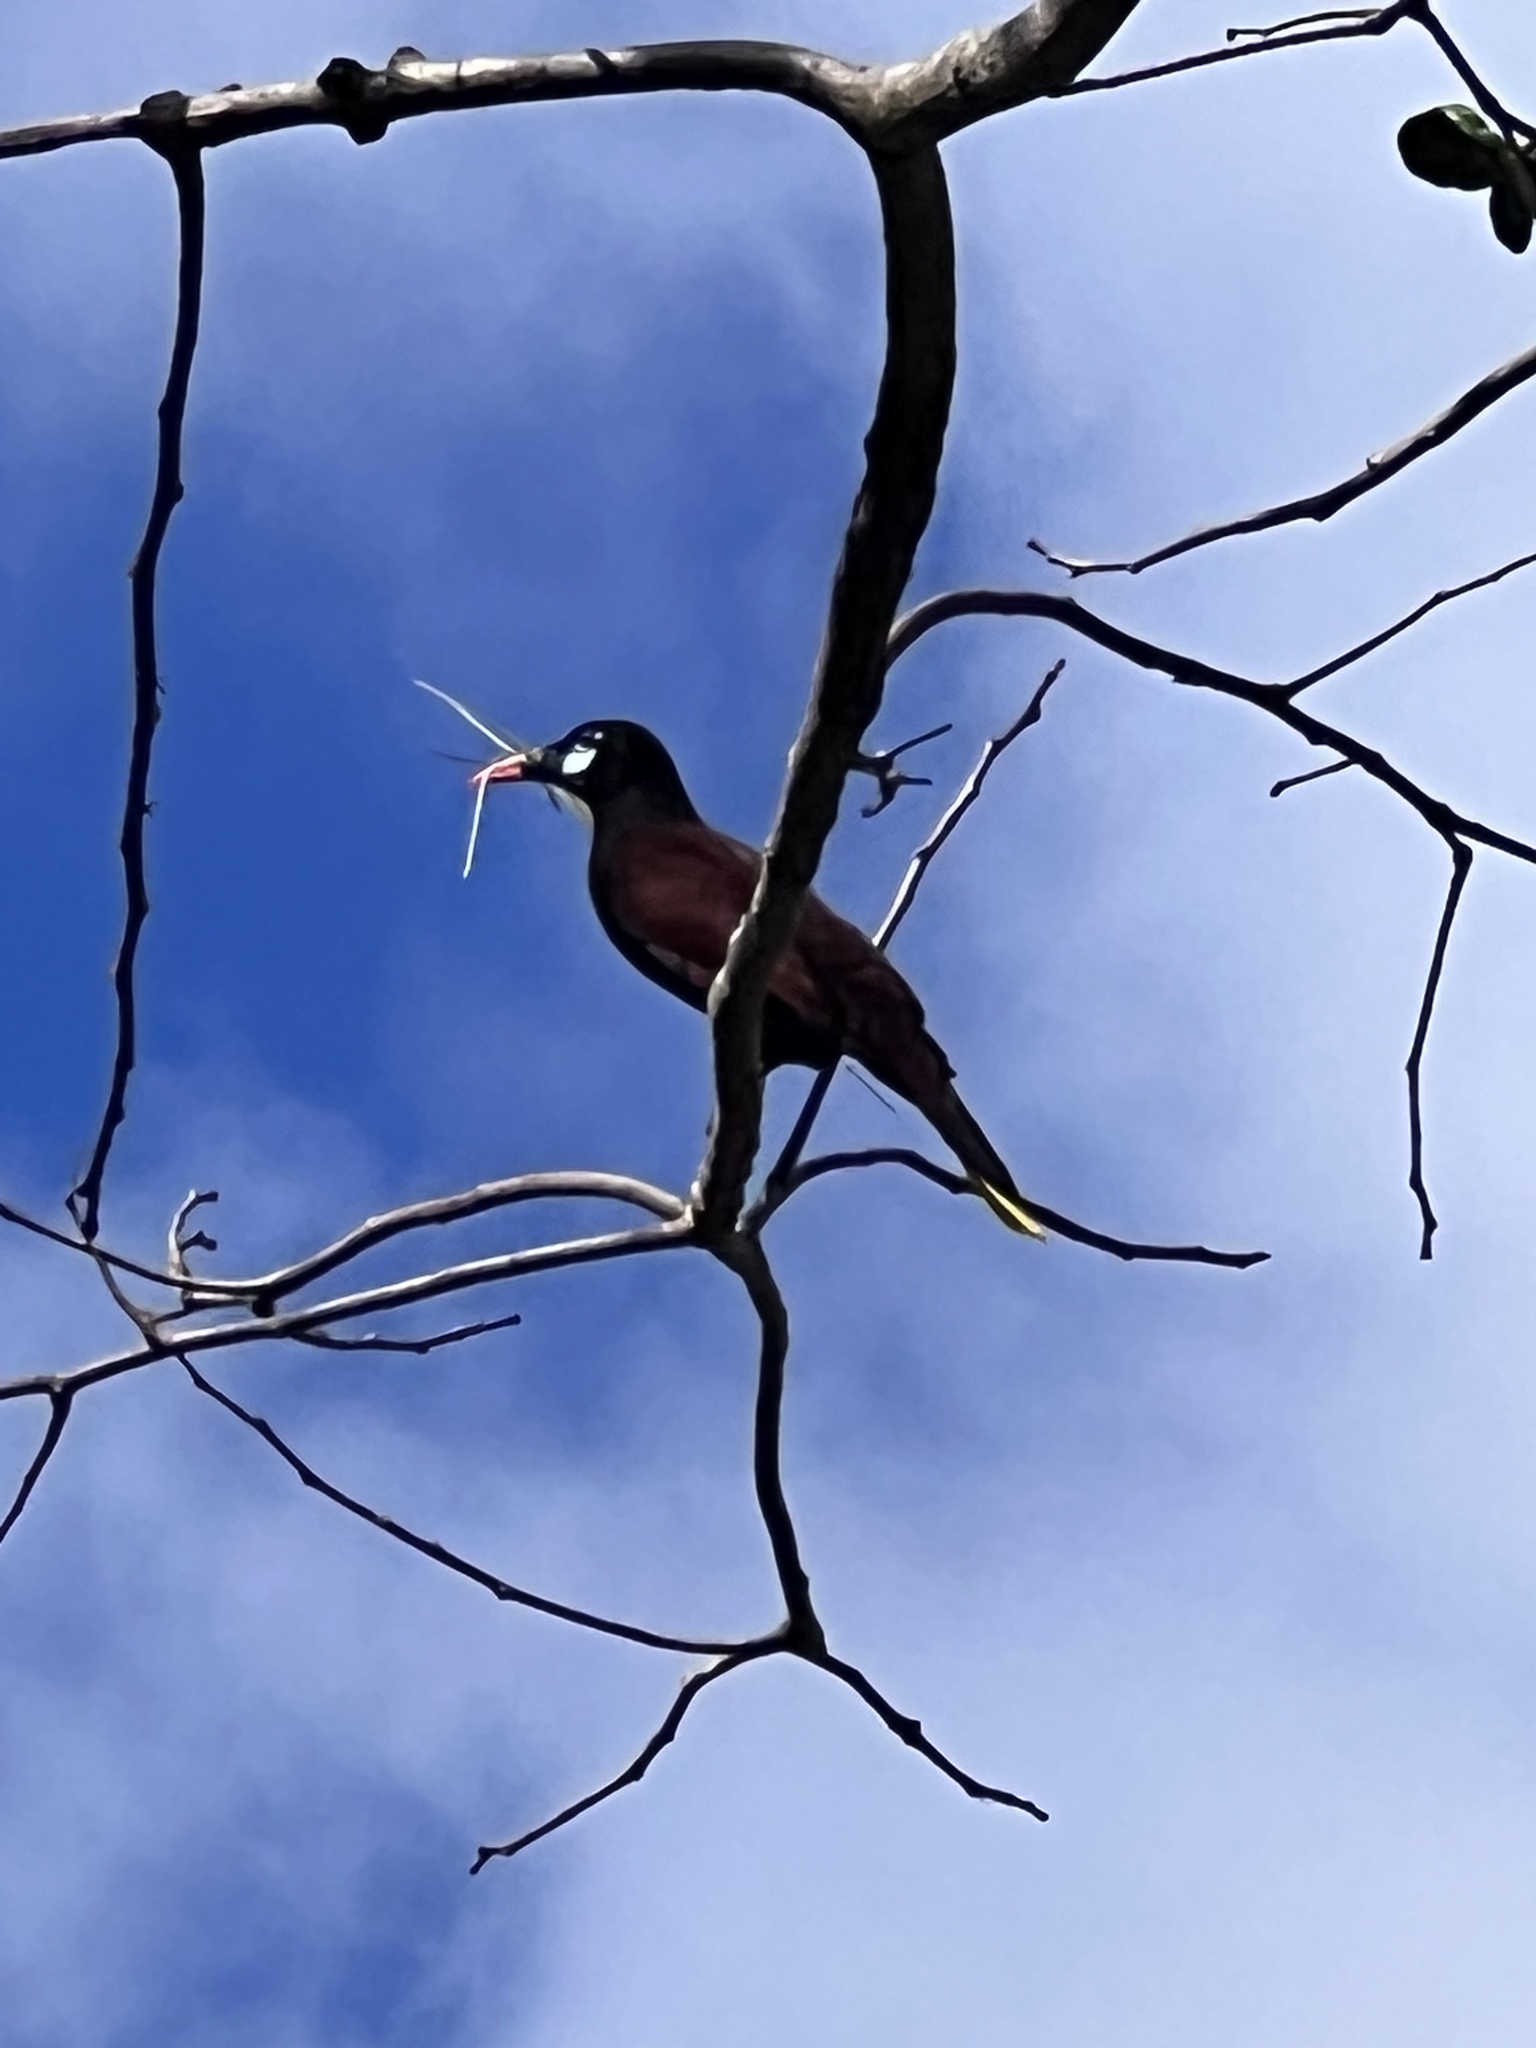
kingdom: Animalia
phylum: Chordata
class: Aves
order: Passeriformes
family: Icteridae
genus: Psarocolius
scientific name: Psarocolius montezuma
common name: Montezuma oropendola
